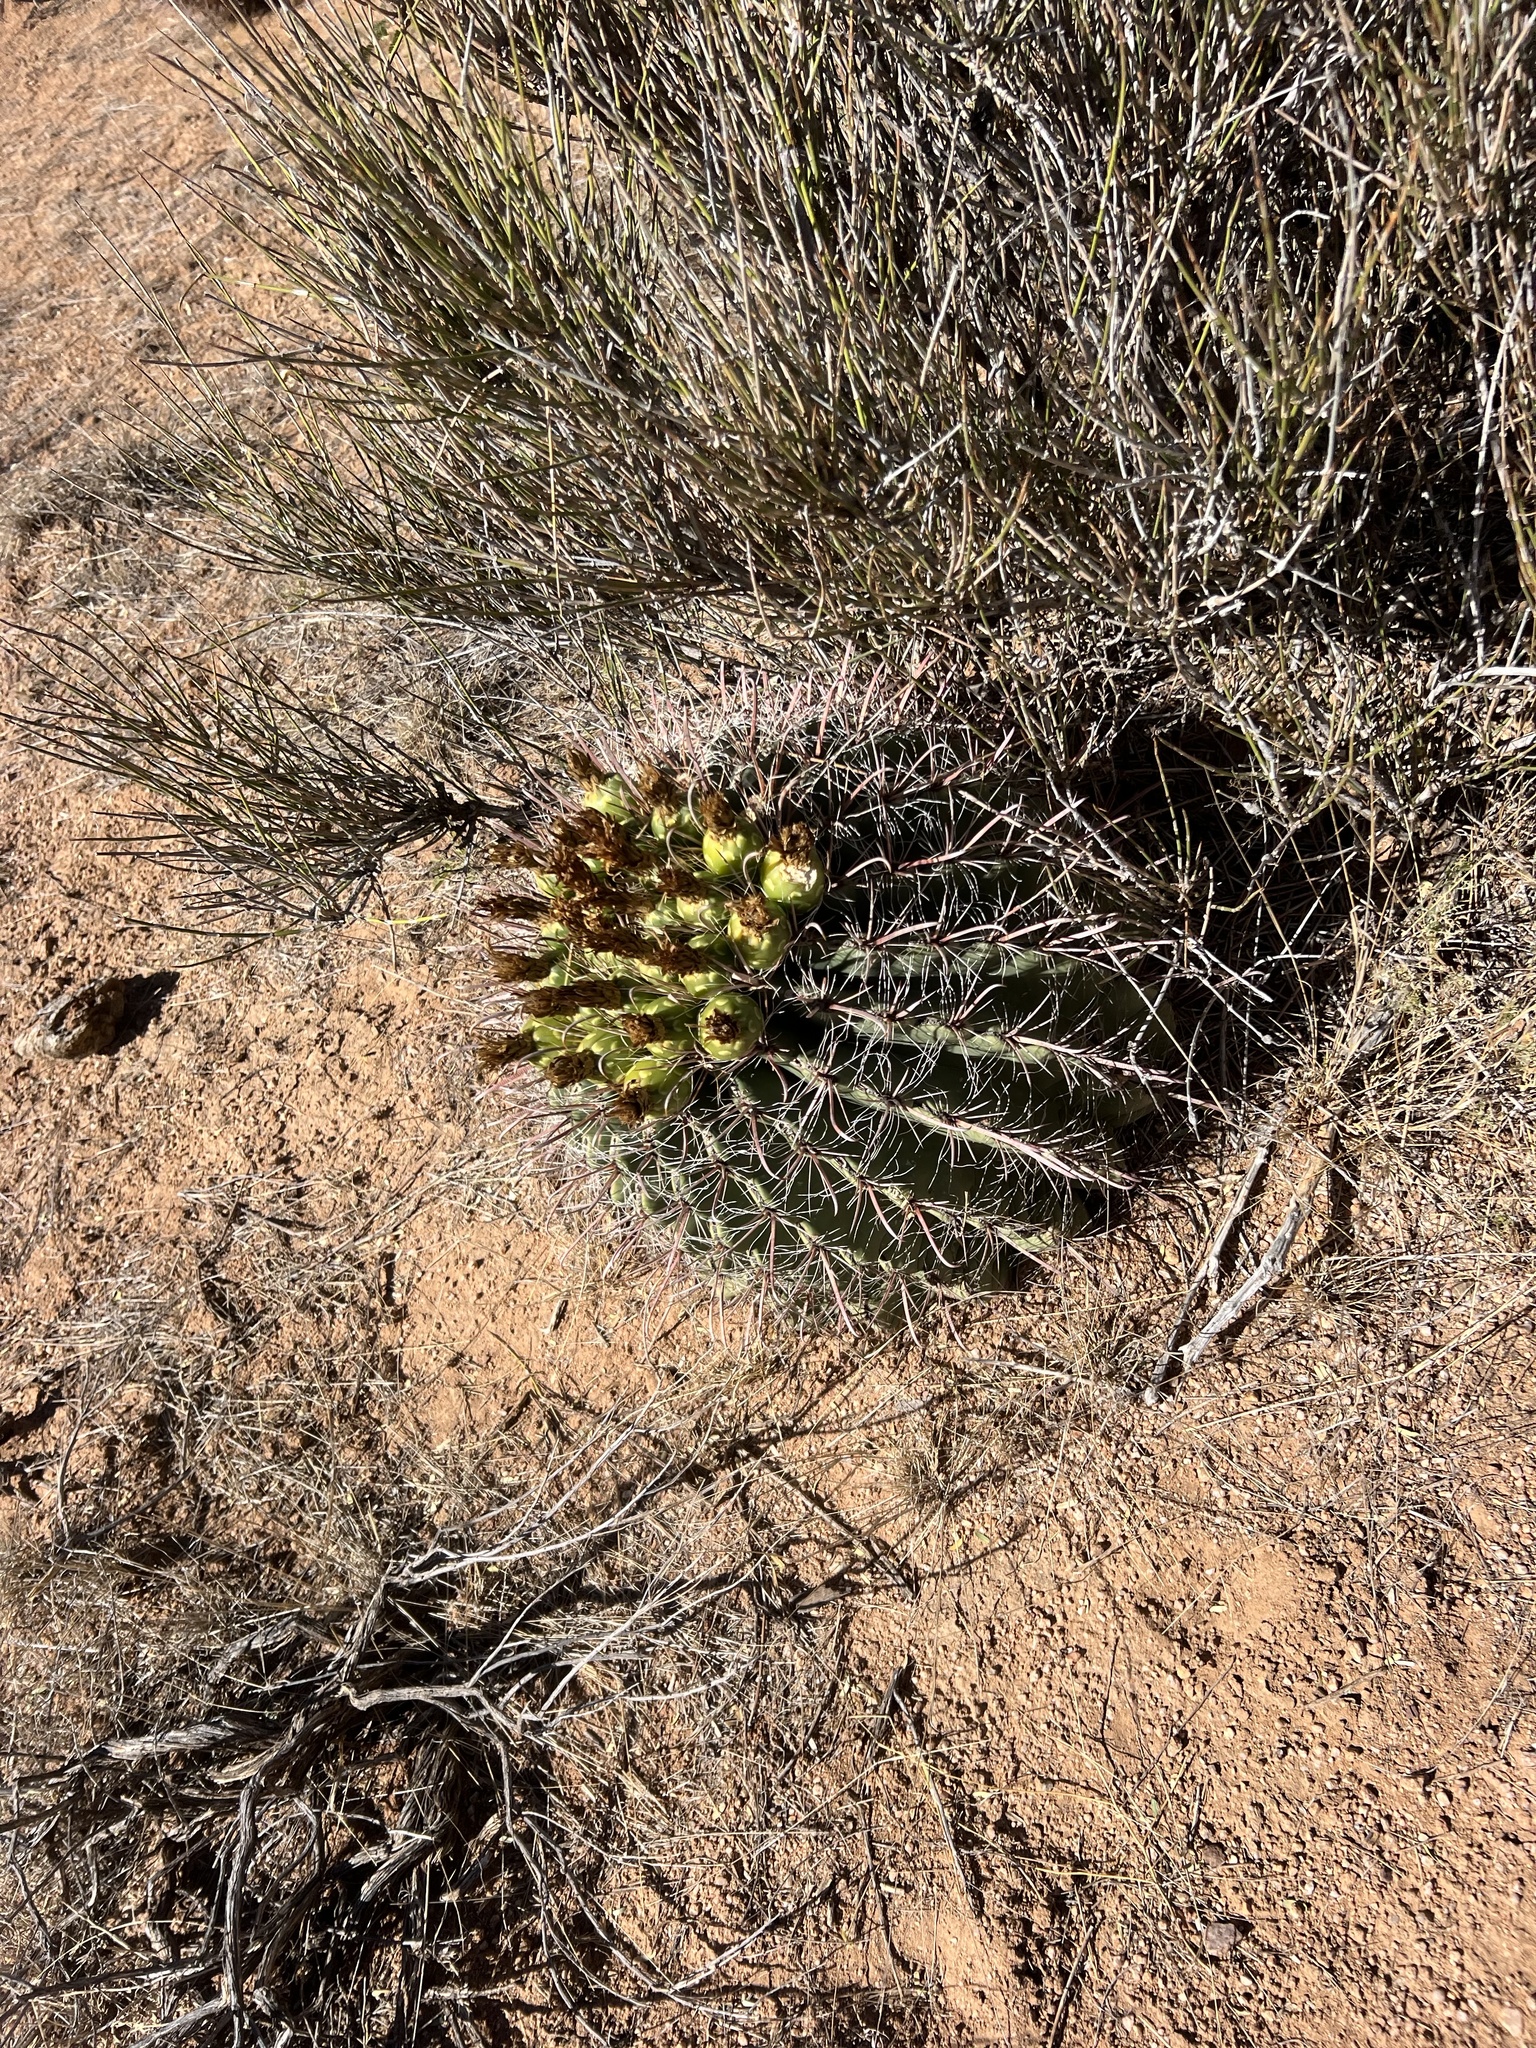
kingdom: Plantae
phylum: Tracheophyta
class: Magnoliopsida
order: Caryophyllales
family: Cactaceae
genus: Ferocactus
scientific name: Ferocactus wislizeni
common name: Candy barrel cactus
